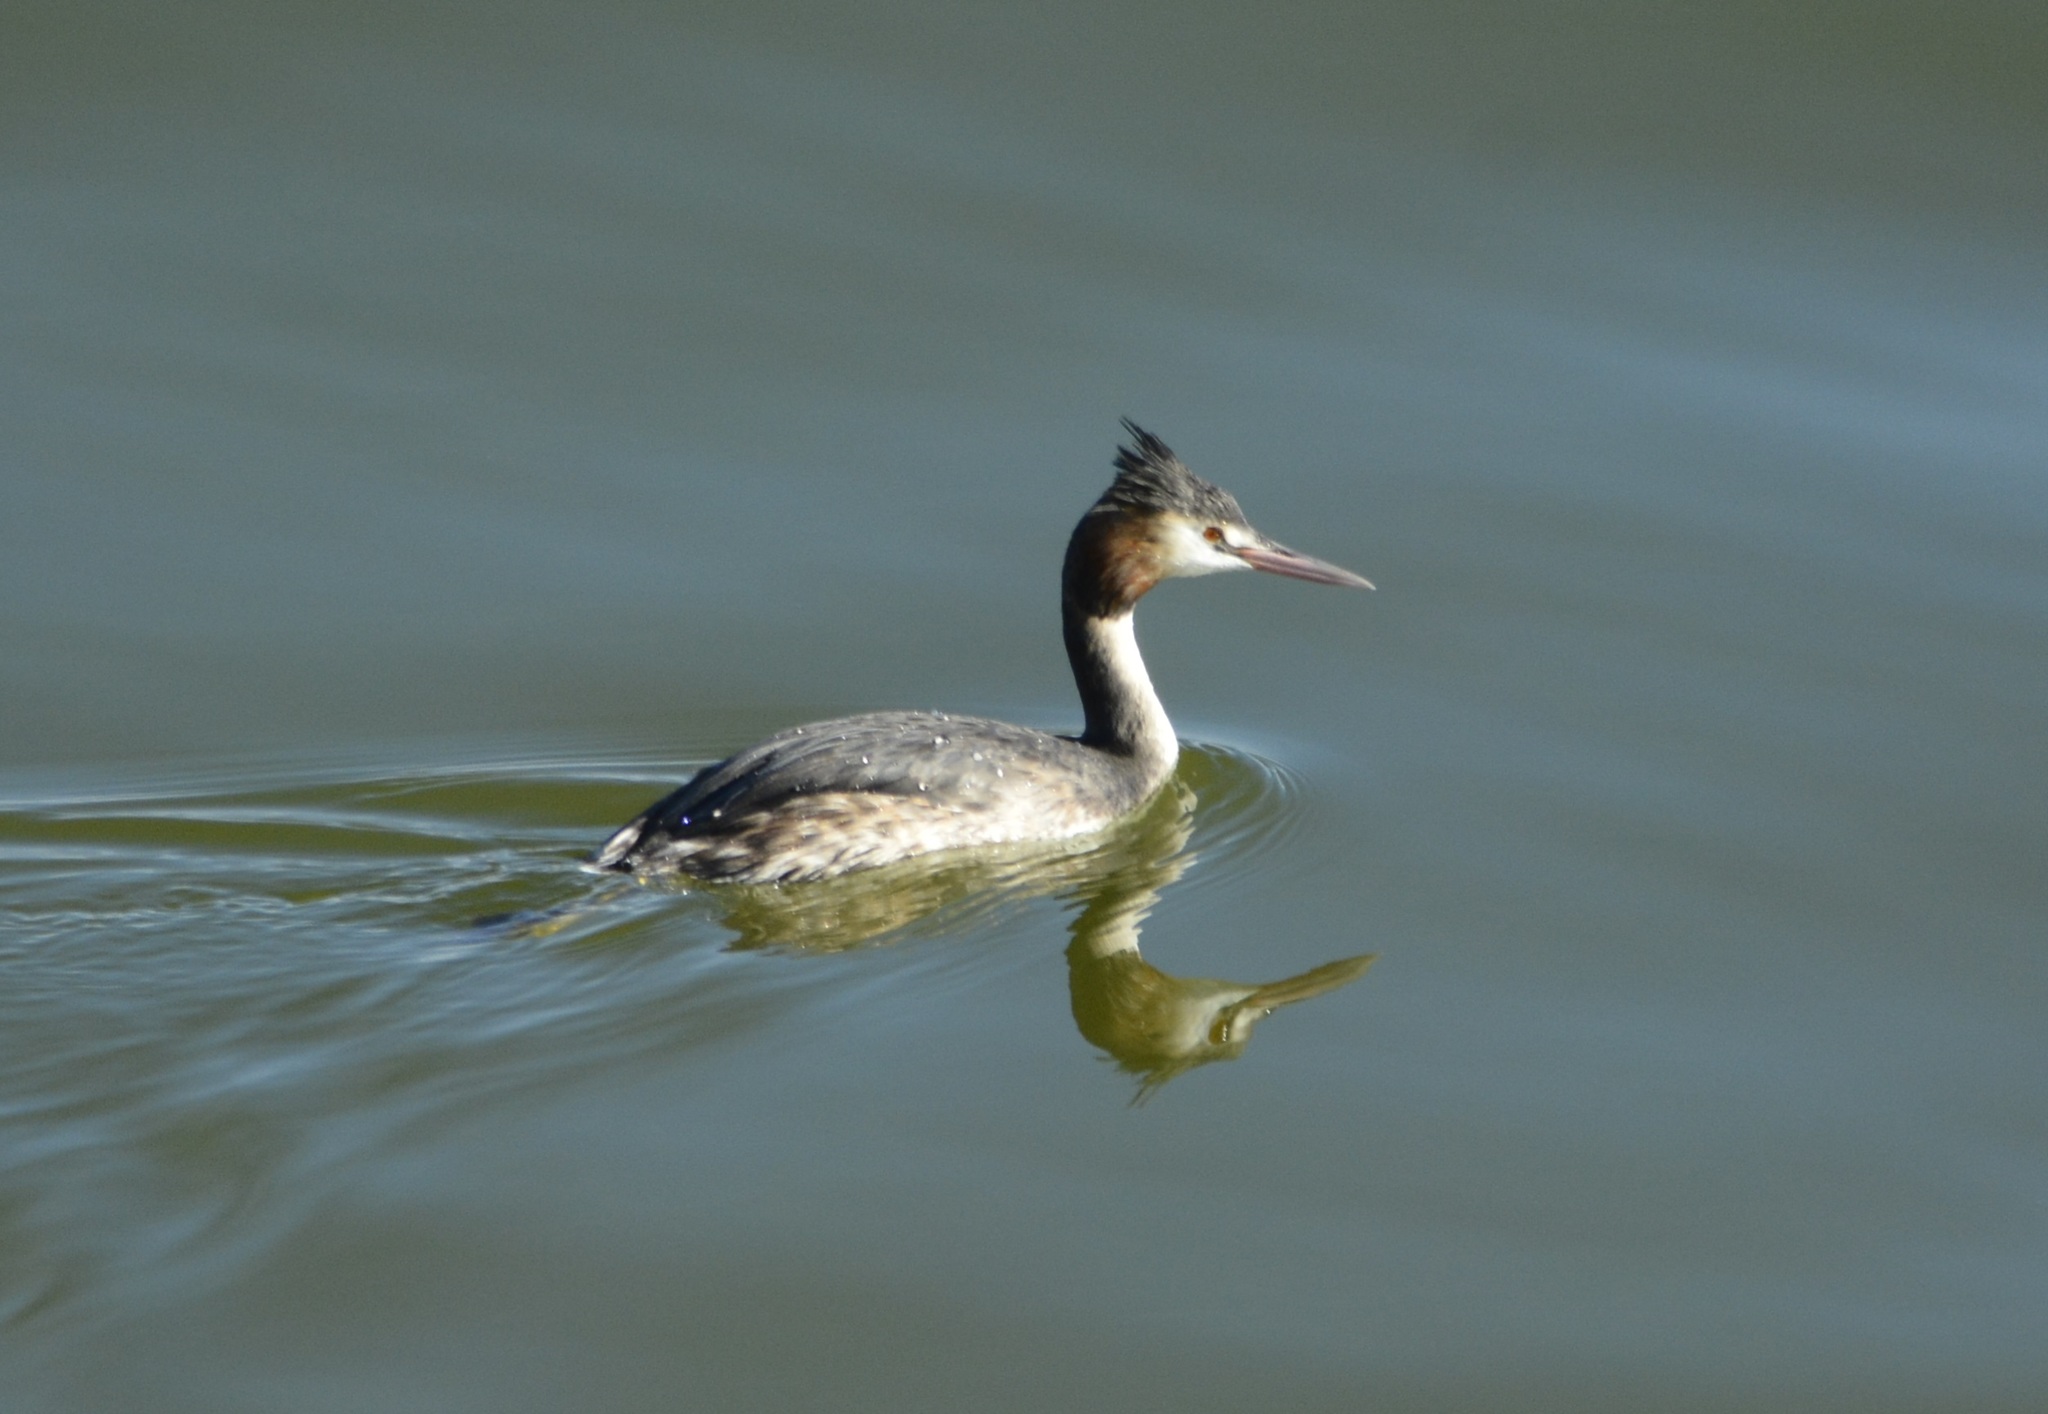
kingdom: Animalia
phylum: Chordata
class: Aves
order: Podicipediformes
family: Podicipedidae
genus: Podiceps
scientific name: Podiceps cristatus
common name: Great crested grebe
